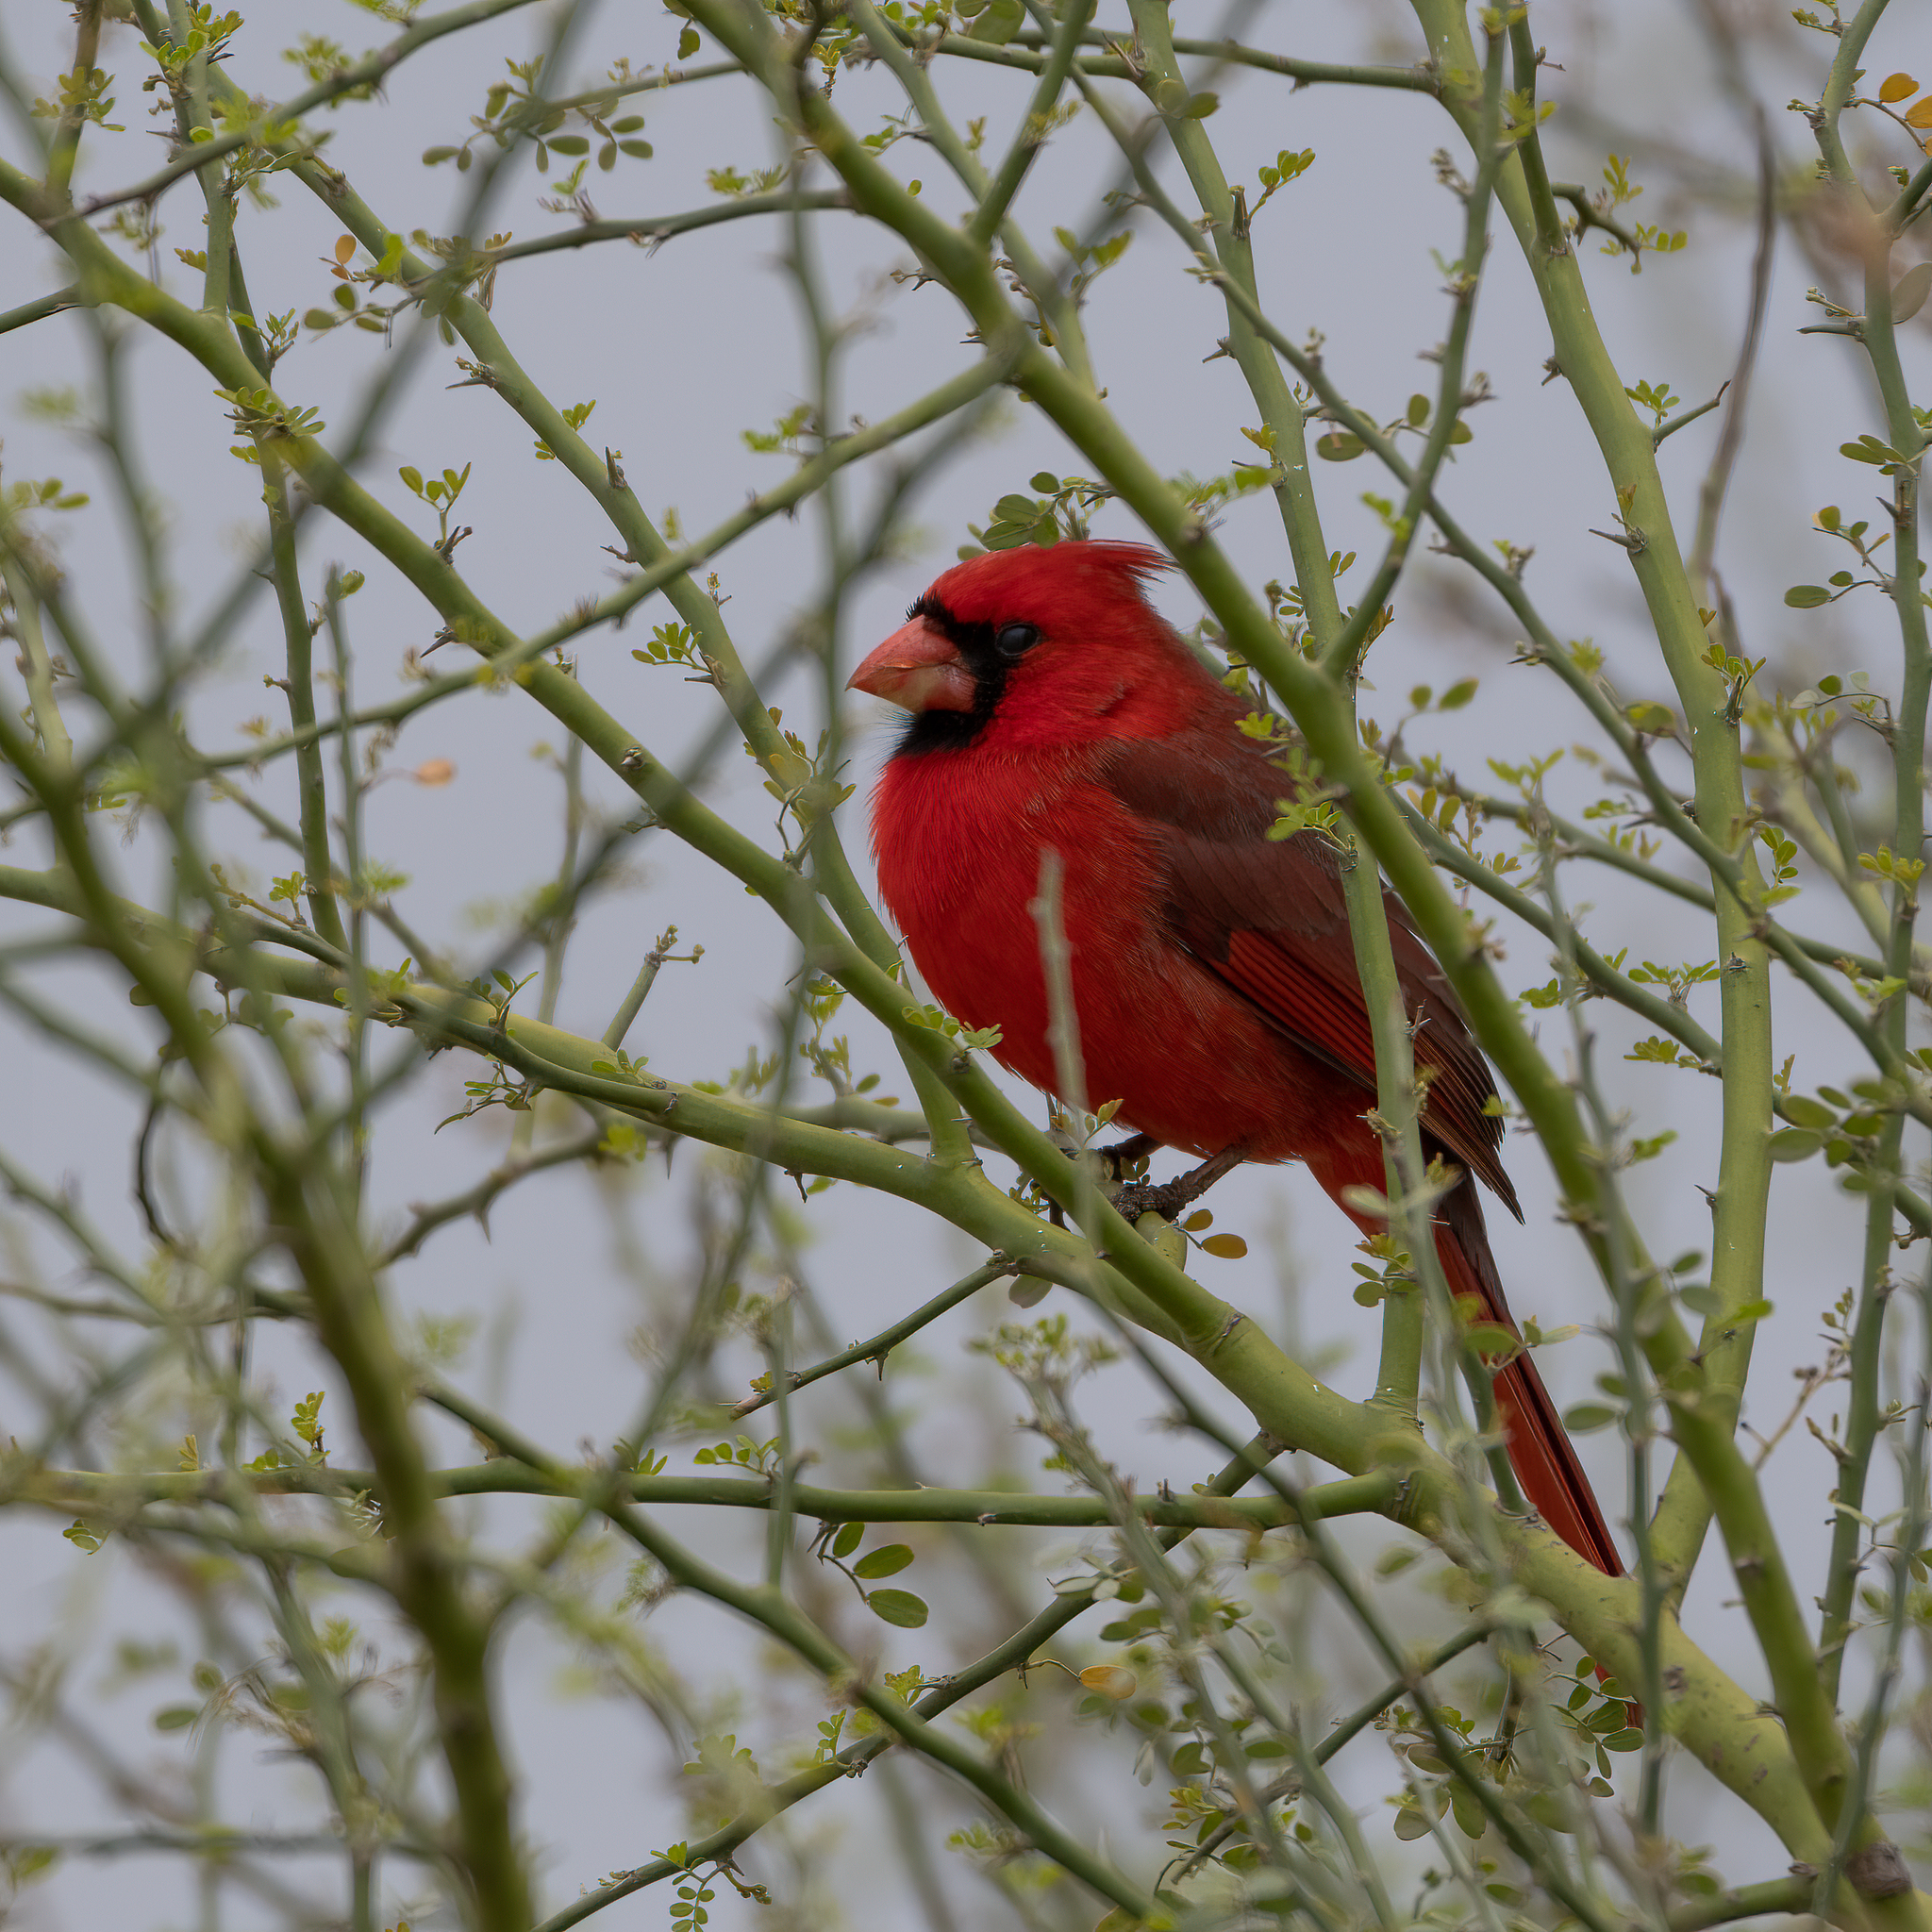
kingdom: Animalia
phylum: Chordata
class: Aves
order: Passeriformes
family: Cardinalidae
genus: Cardinalis
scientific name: Cardinalis cardinalis
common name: Northern cardinal
